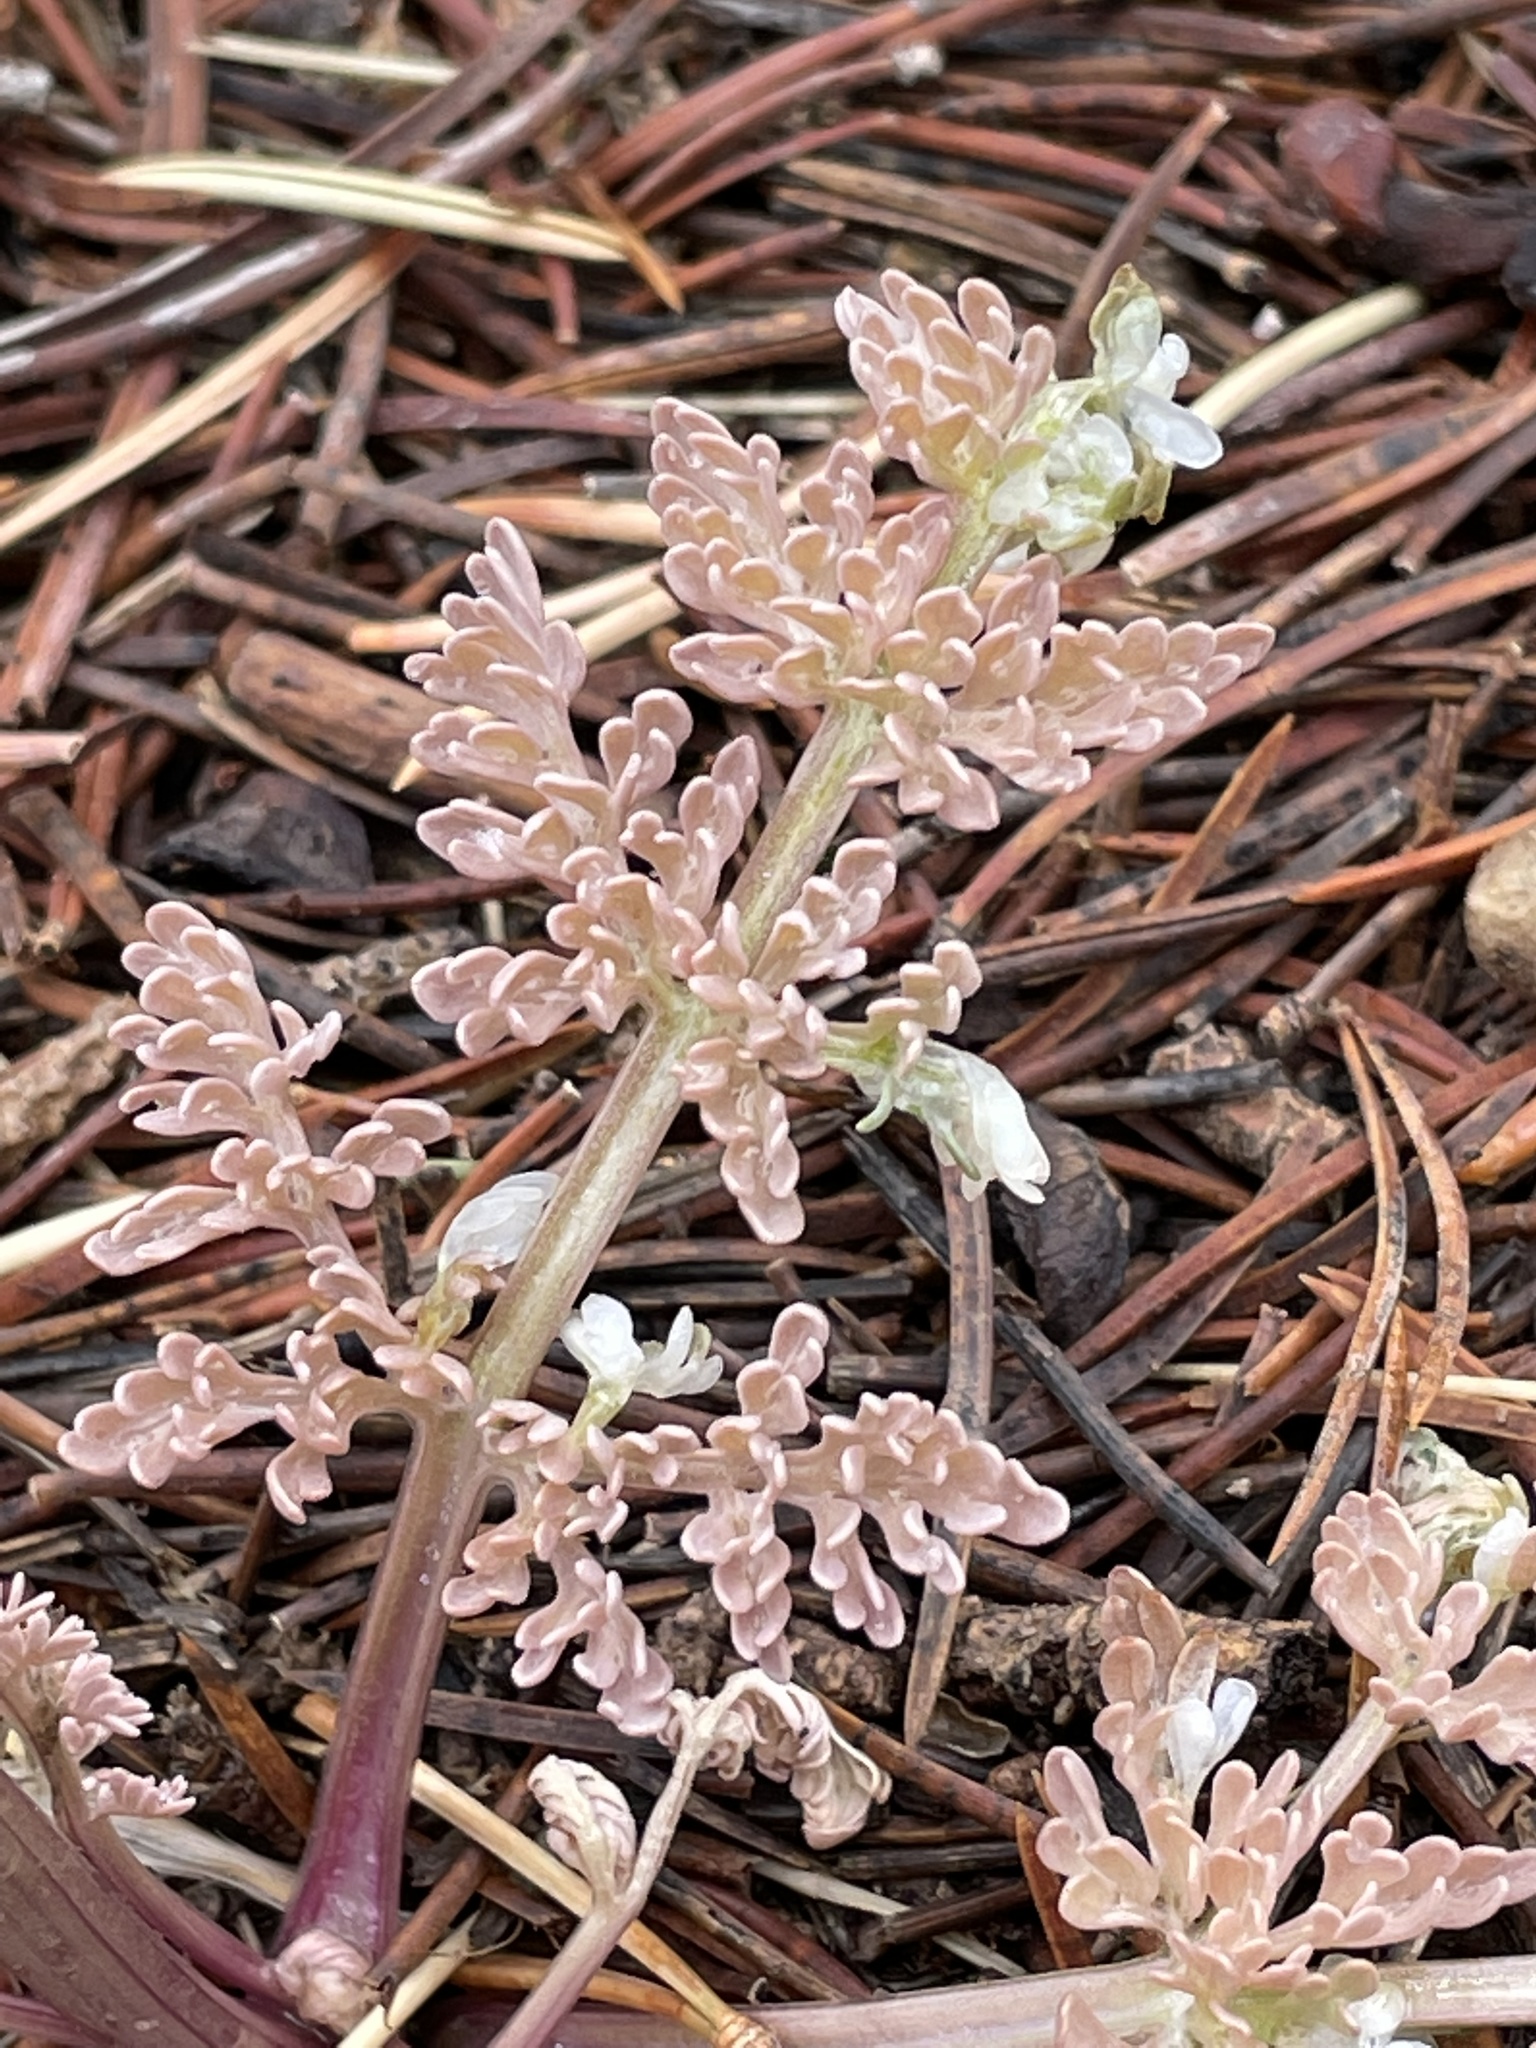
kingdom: Plantae
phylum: Tracheophyta
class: Magnoliopsida
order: Apiales
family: Apiaceae
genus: Vesper
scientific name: Vesper constancei
